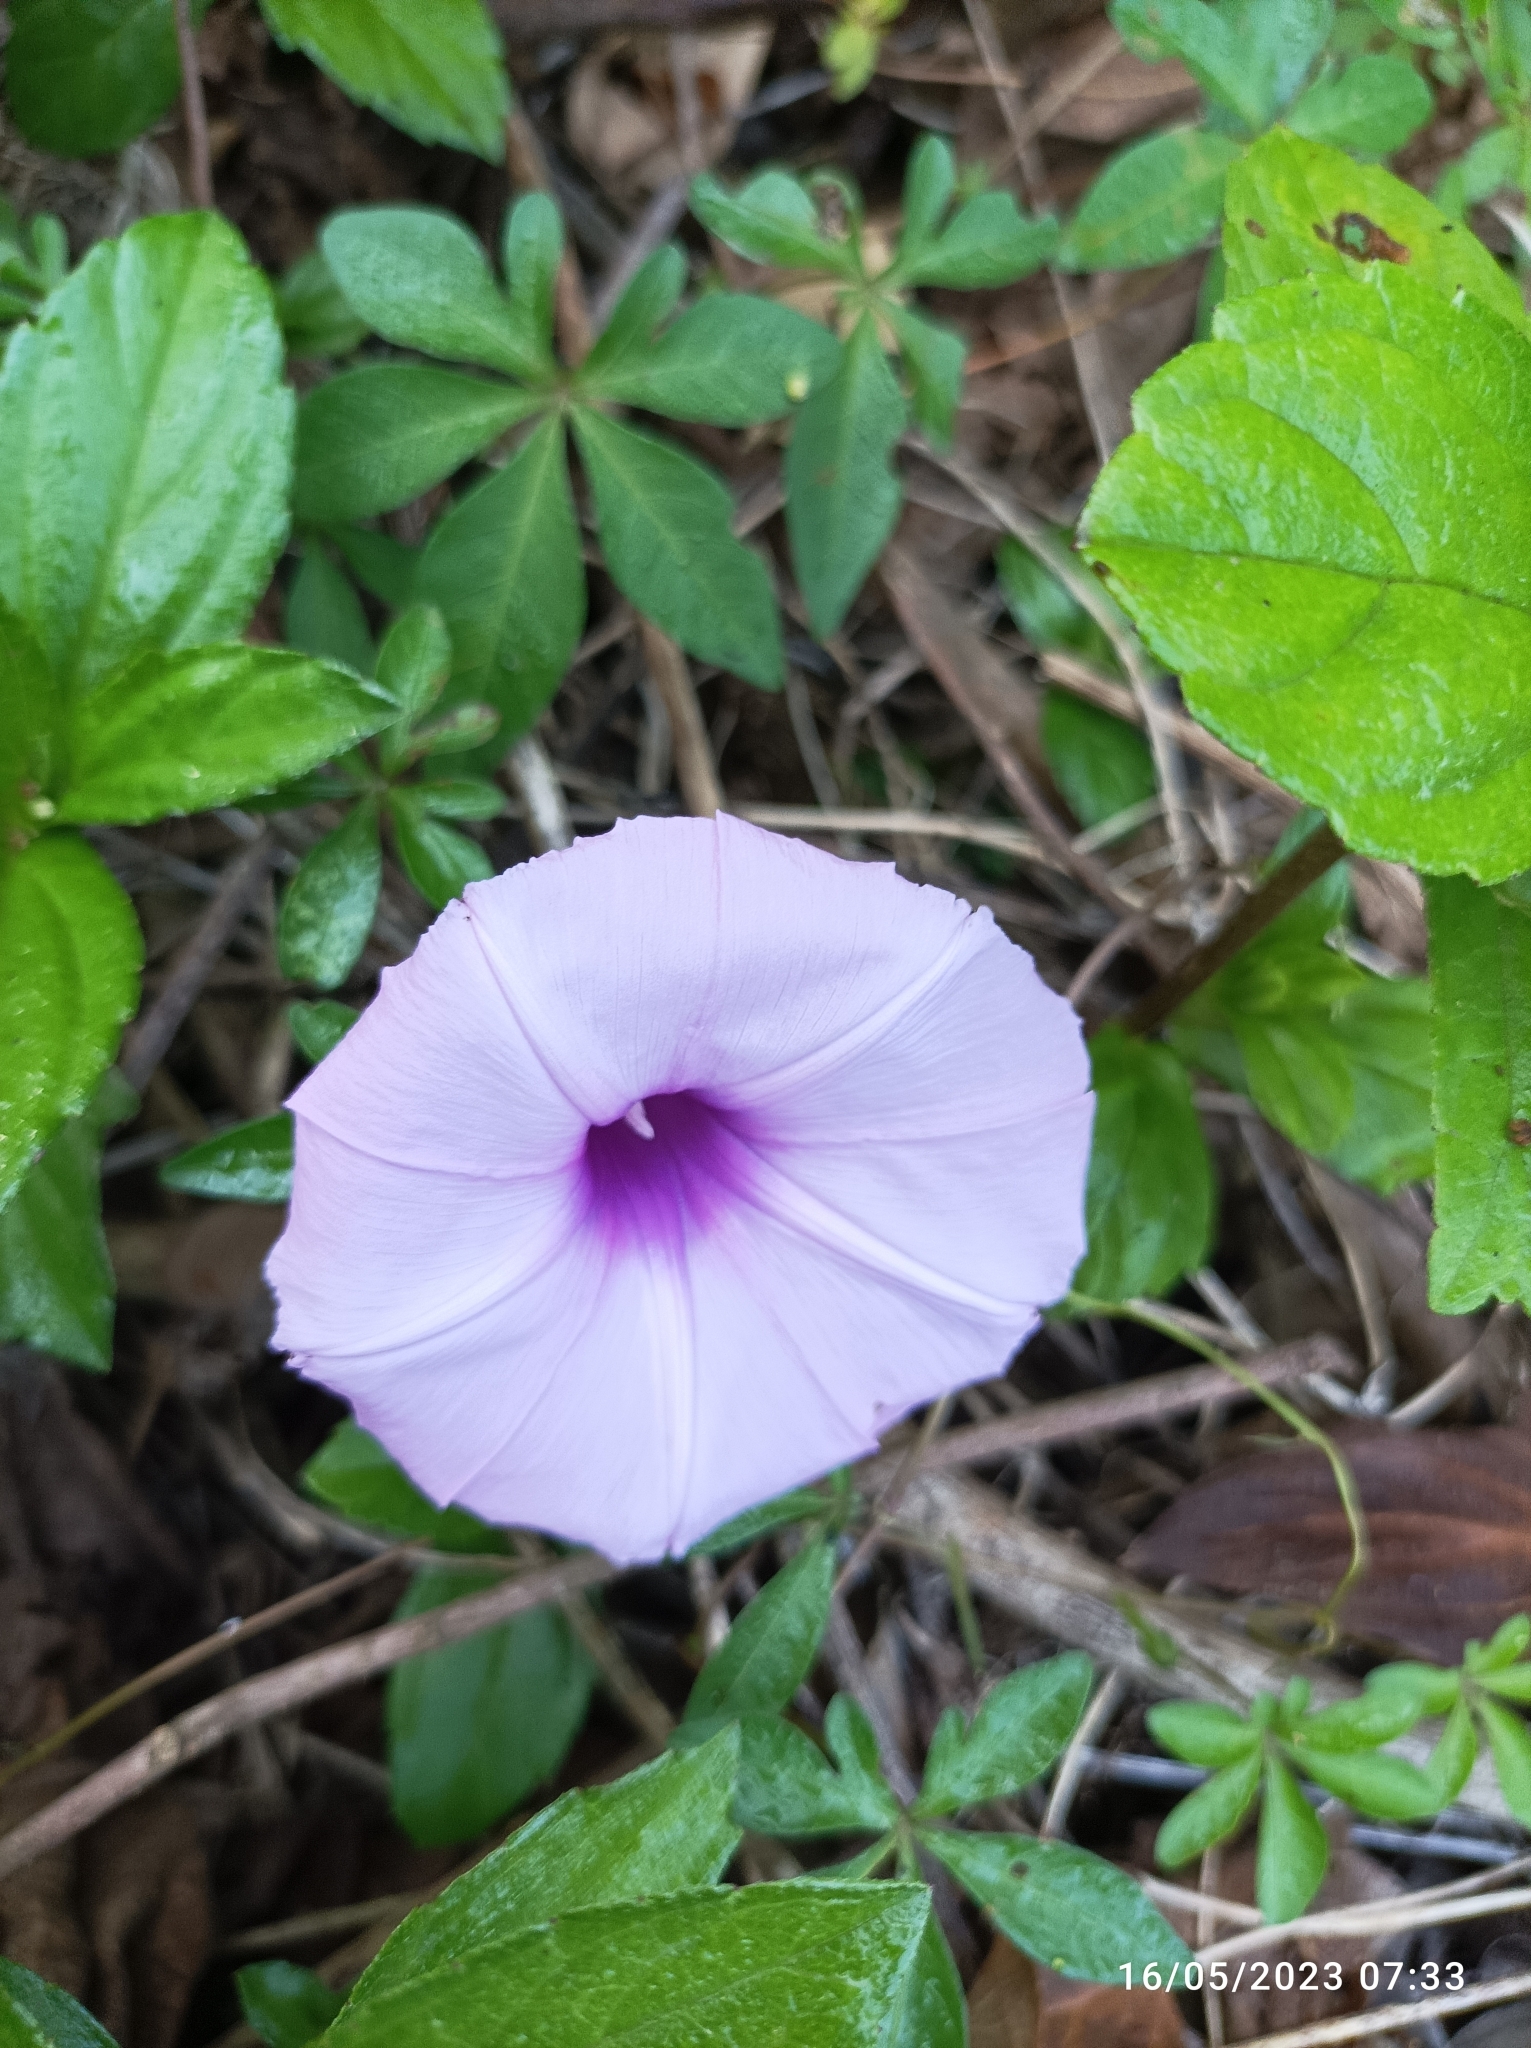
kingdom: Plantae
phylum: Tracheophyta
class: Magnoliopsida
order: Solanales
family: Convolvulaceae
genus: Ipomoea
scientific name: Ipomoea cairica
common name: Mile a minute vine
